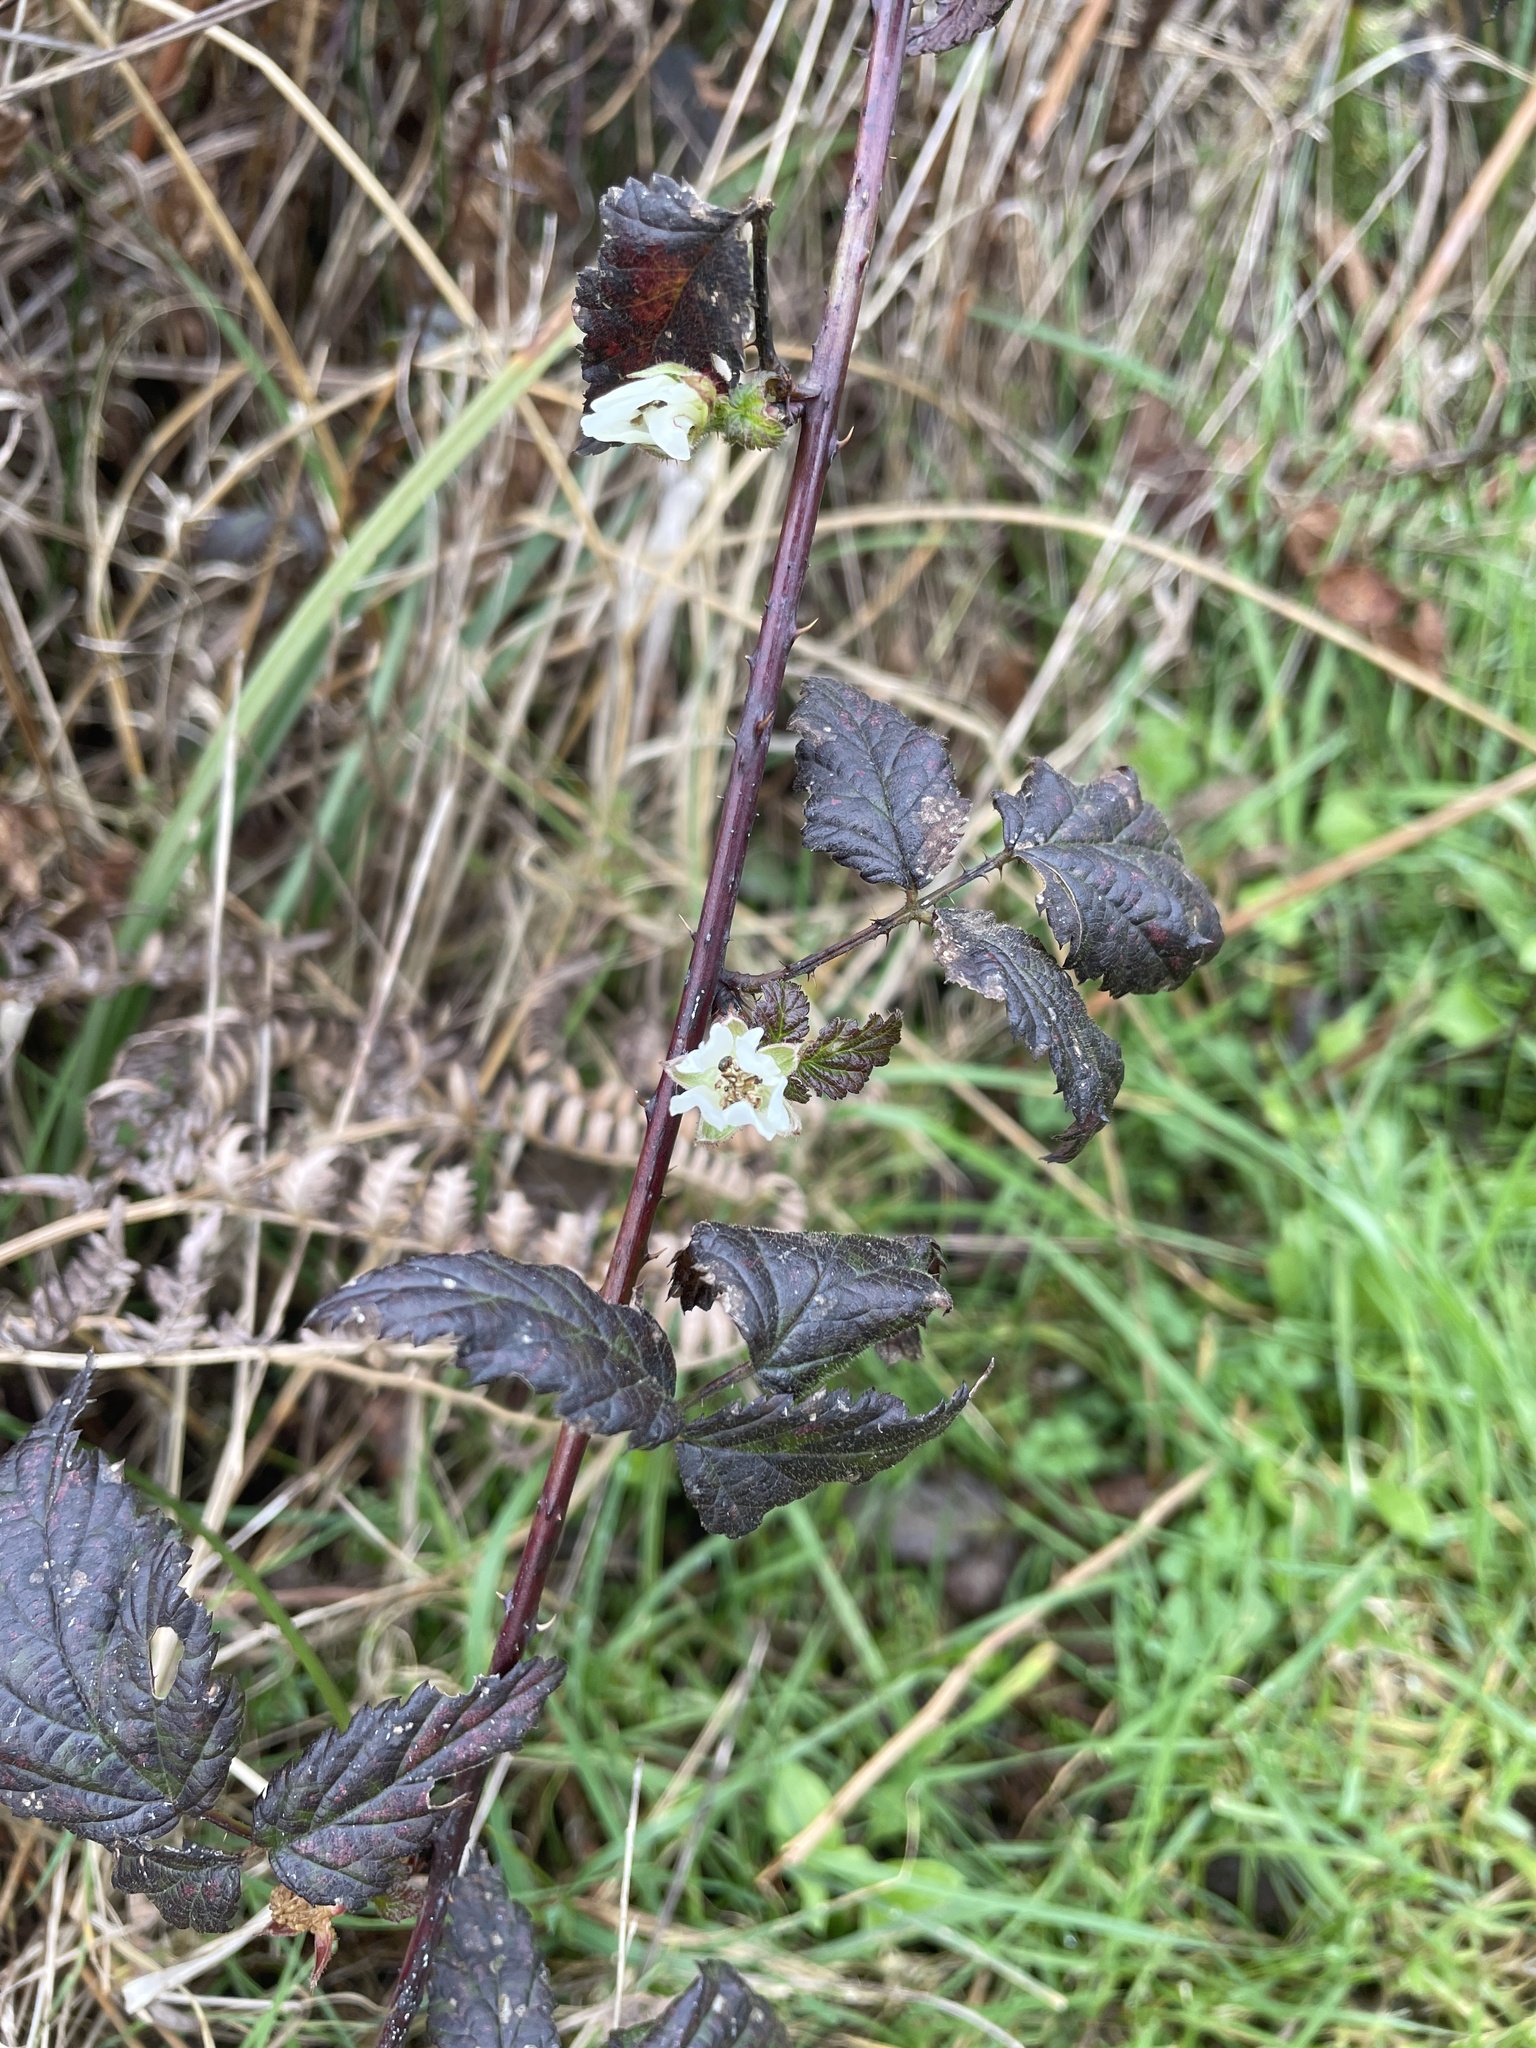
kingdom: Plantae
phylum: Tracheophyta
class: Magnoliopsida
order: Rosales
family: Rosaceae
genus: Rubus
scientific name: Rubus ursinus
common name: Pacific blackberry
